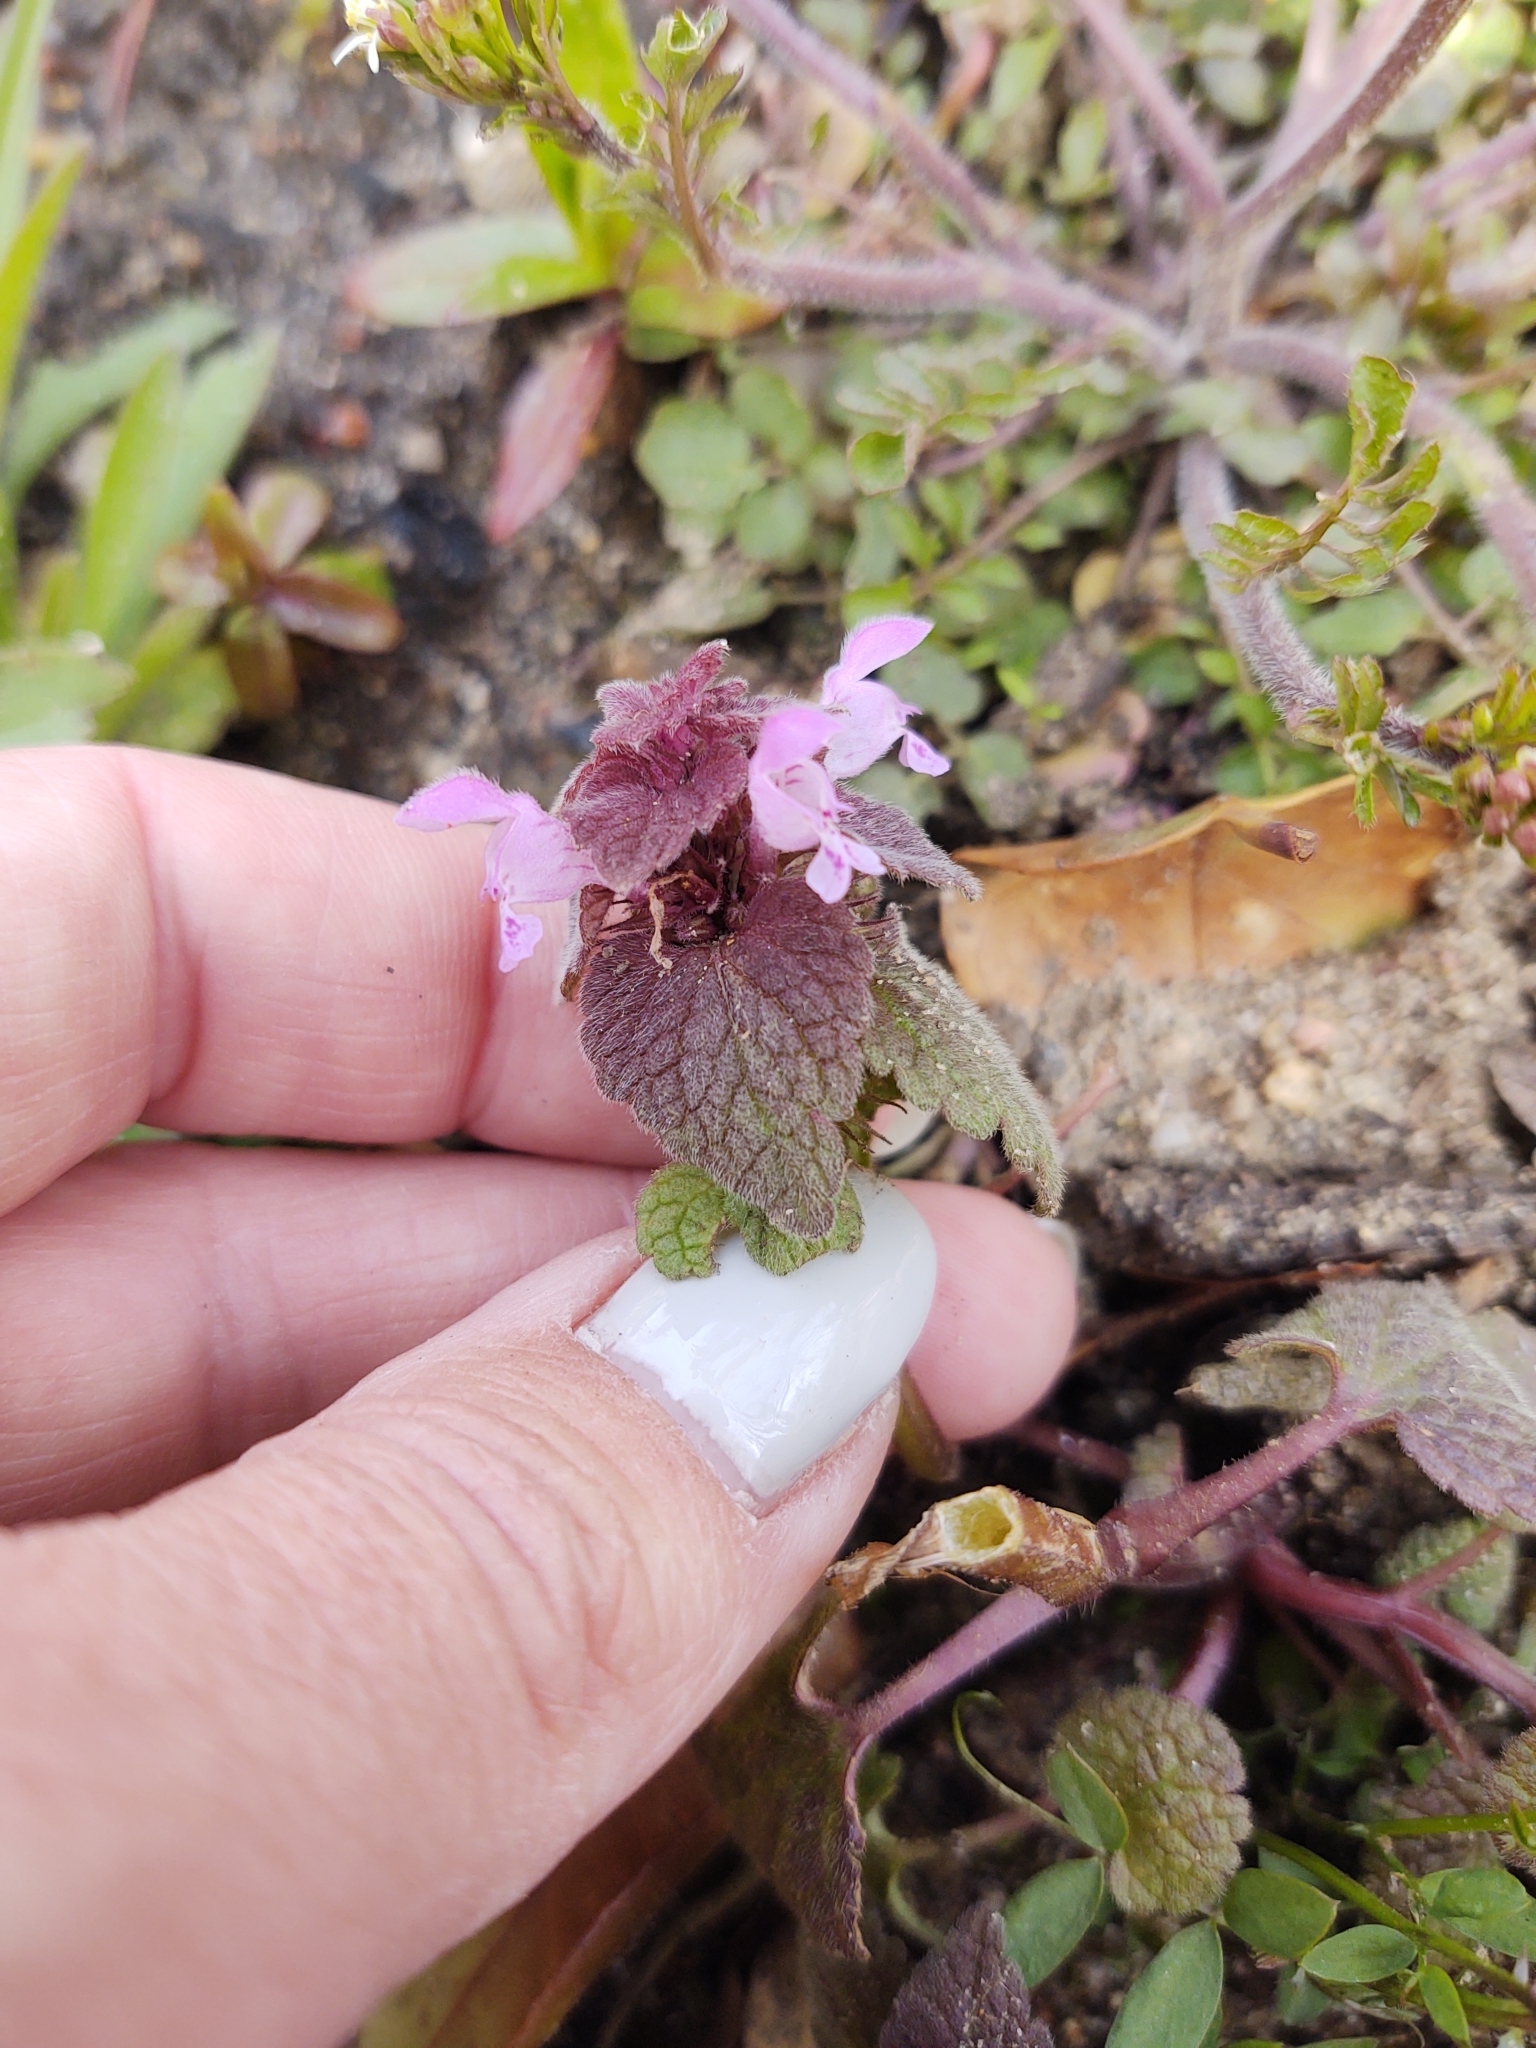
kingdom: Plantae
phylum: Tracheophyta
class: Magnoliopsida
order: Lamiales
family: Lamiaceae
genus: Lamium
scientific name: Lamium purpureum
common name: Red dead-nettle
